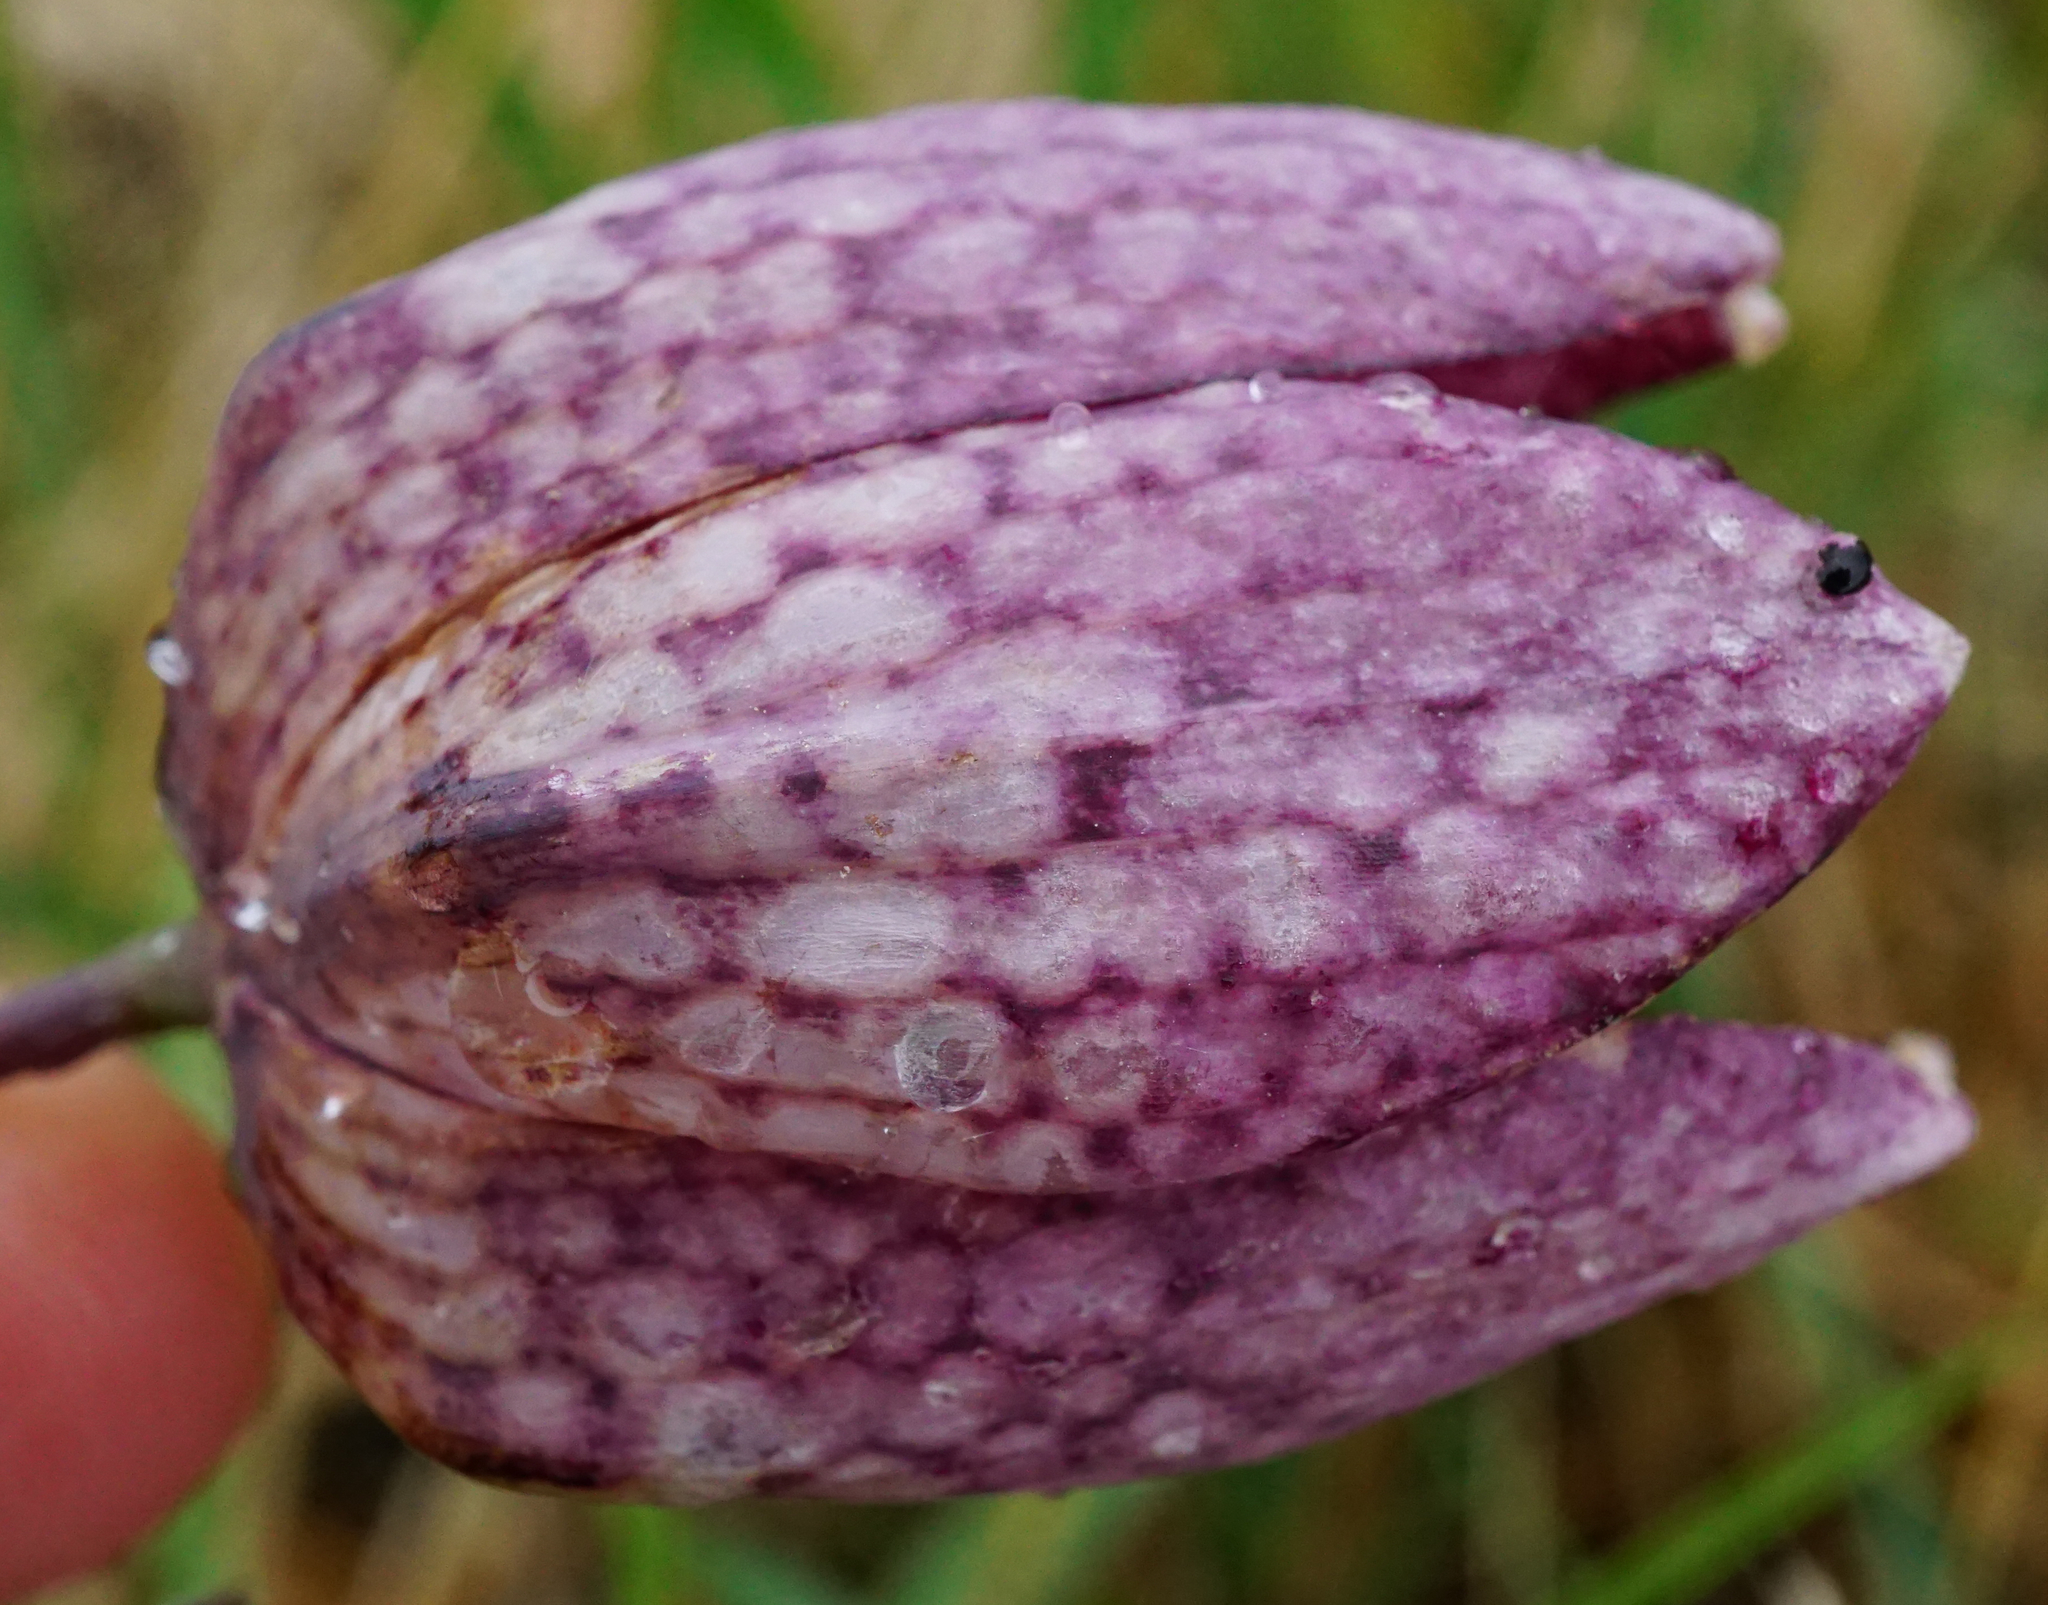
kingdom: Plantae
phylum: Tracheophyta
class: Liliopsida
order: Liliales
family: Liliaceae
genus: Fritillaria
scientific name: Fritillaria meleagris
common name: Fritillary
